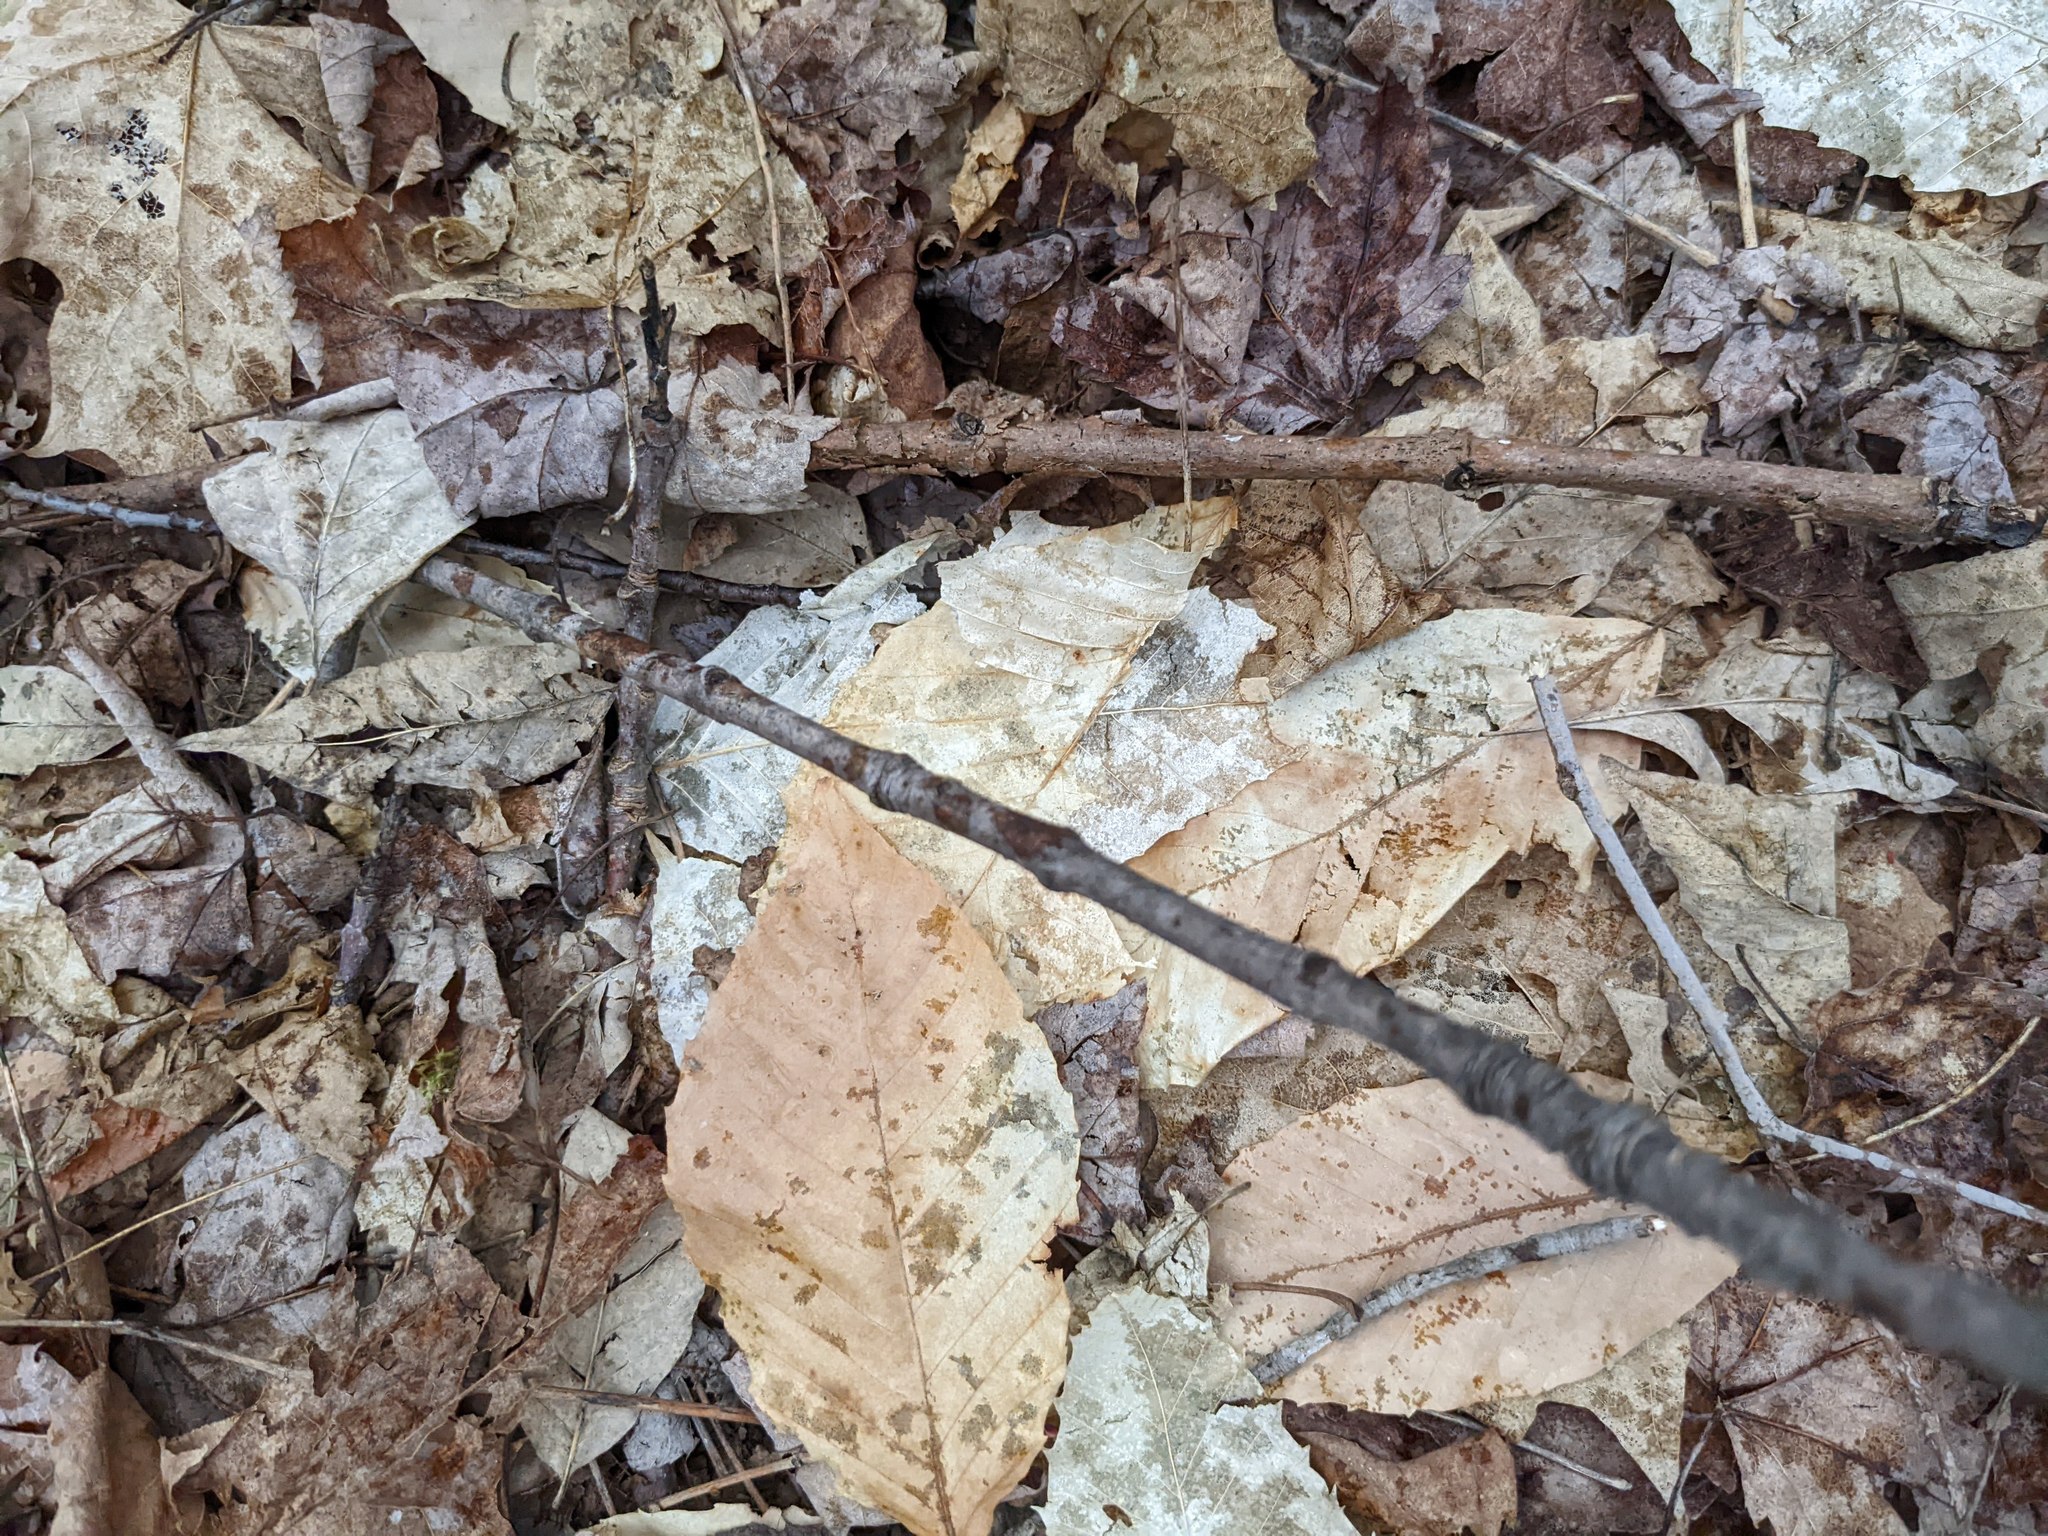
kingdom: Plantae
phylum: Tracheophyta
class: Magnoliopsida
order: Fagales
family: Fagaceae
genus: Fagus
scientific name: Fagus grandifolia
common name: American beech
